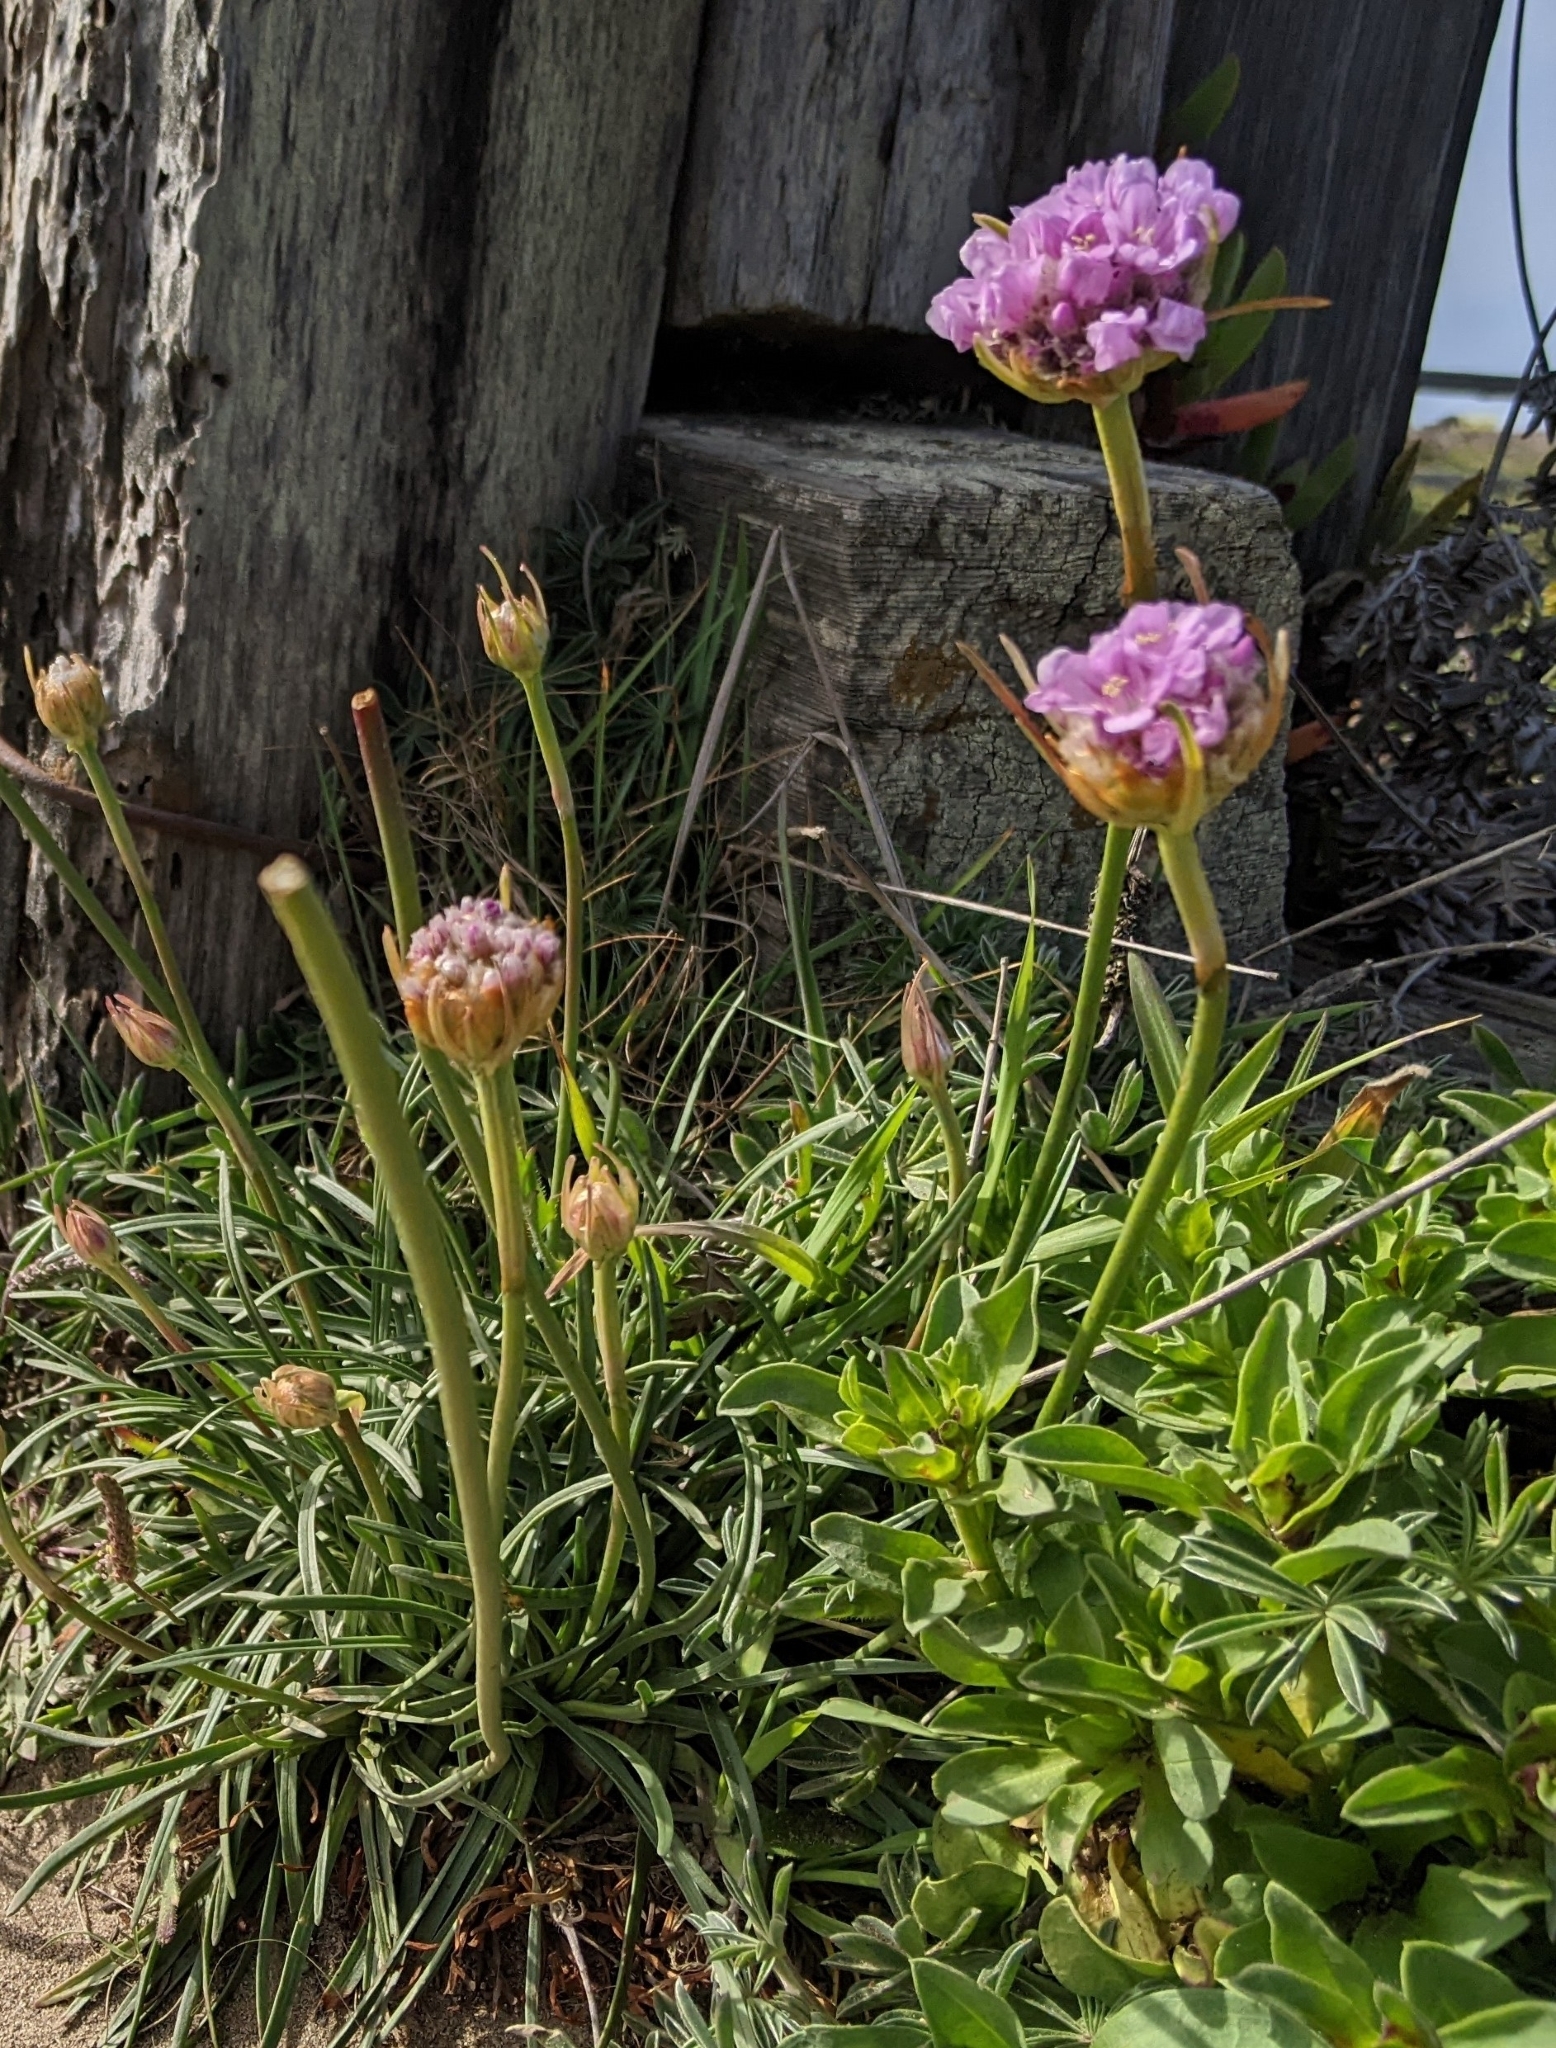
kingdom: Plantae
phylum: Tracheophyta
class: Magnoliopsida
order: Caryophyllales
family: Plumbaginaceae
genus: Armeria
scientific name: Armeria maritima
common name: Thrift
